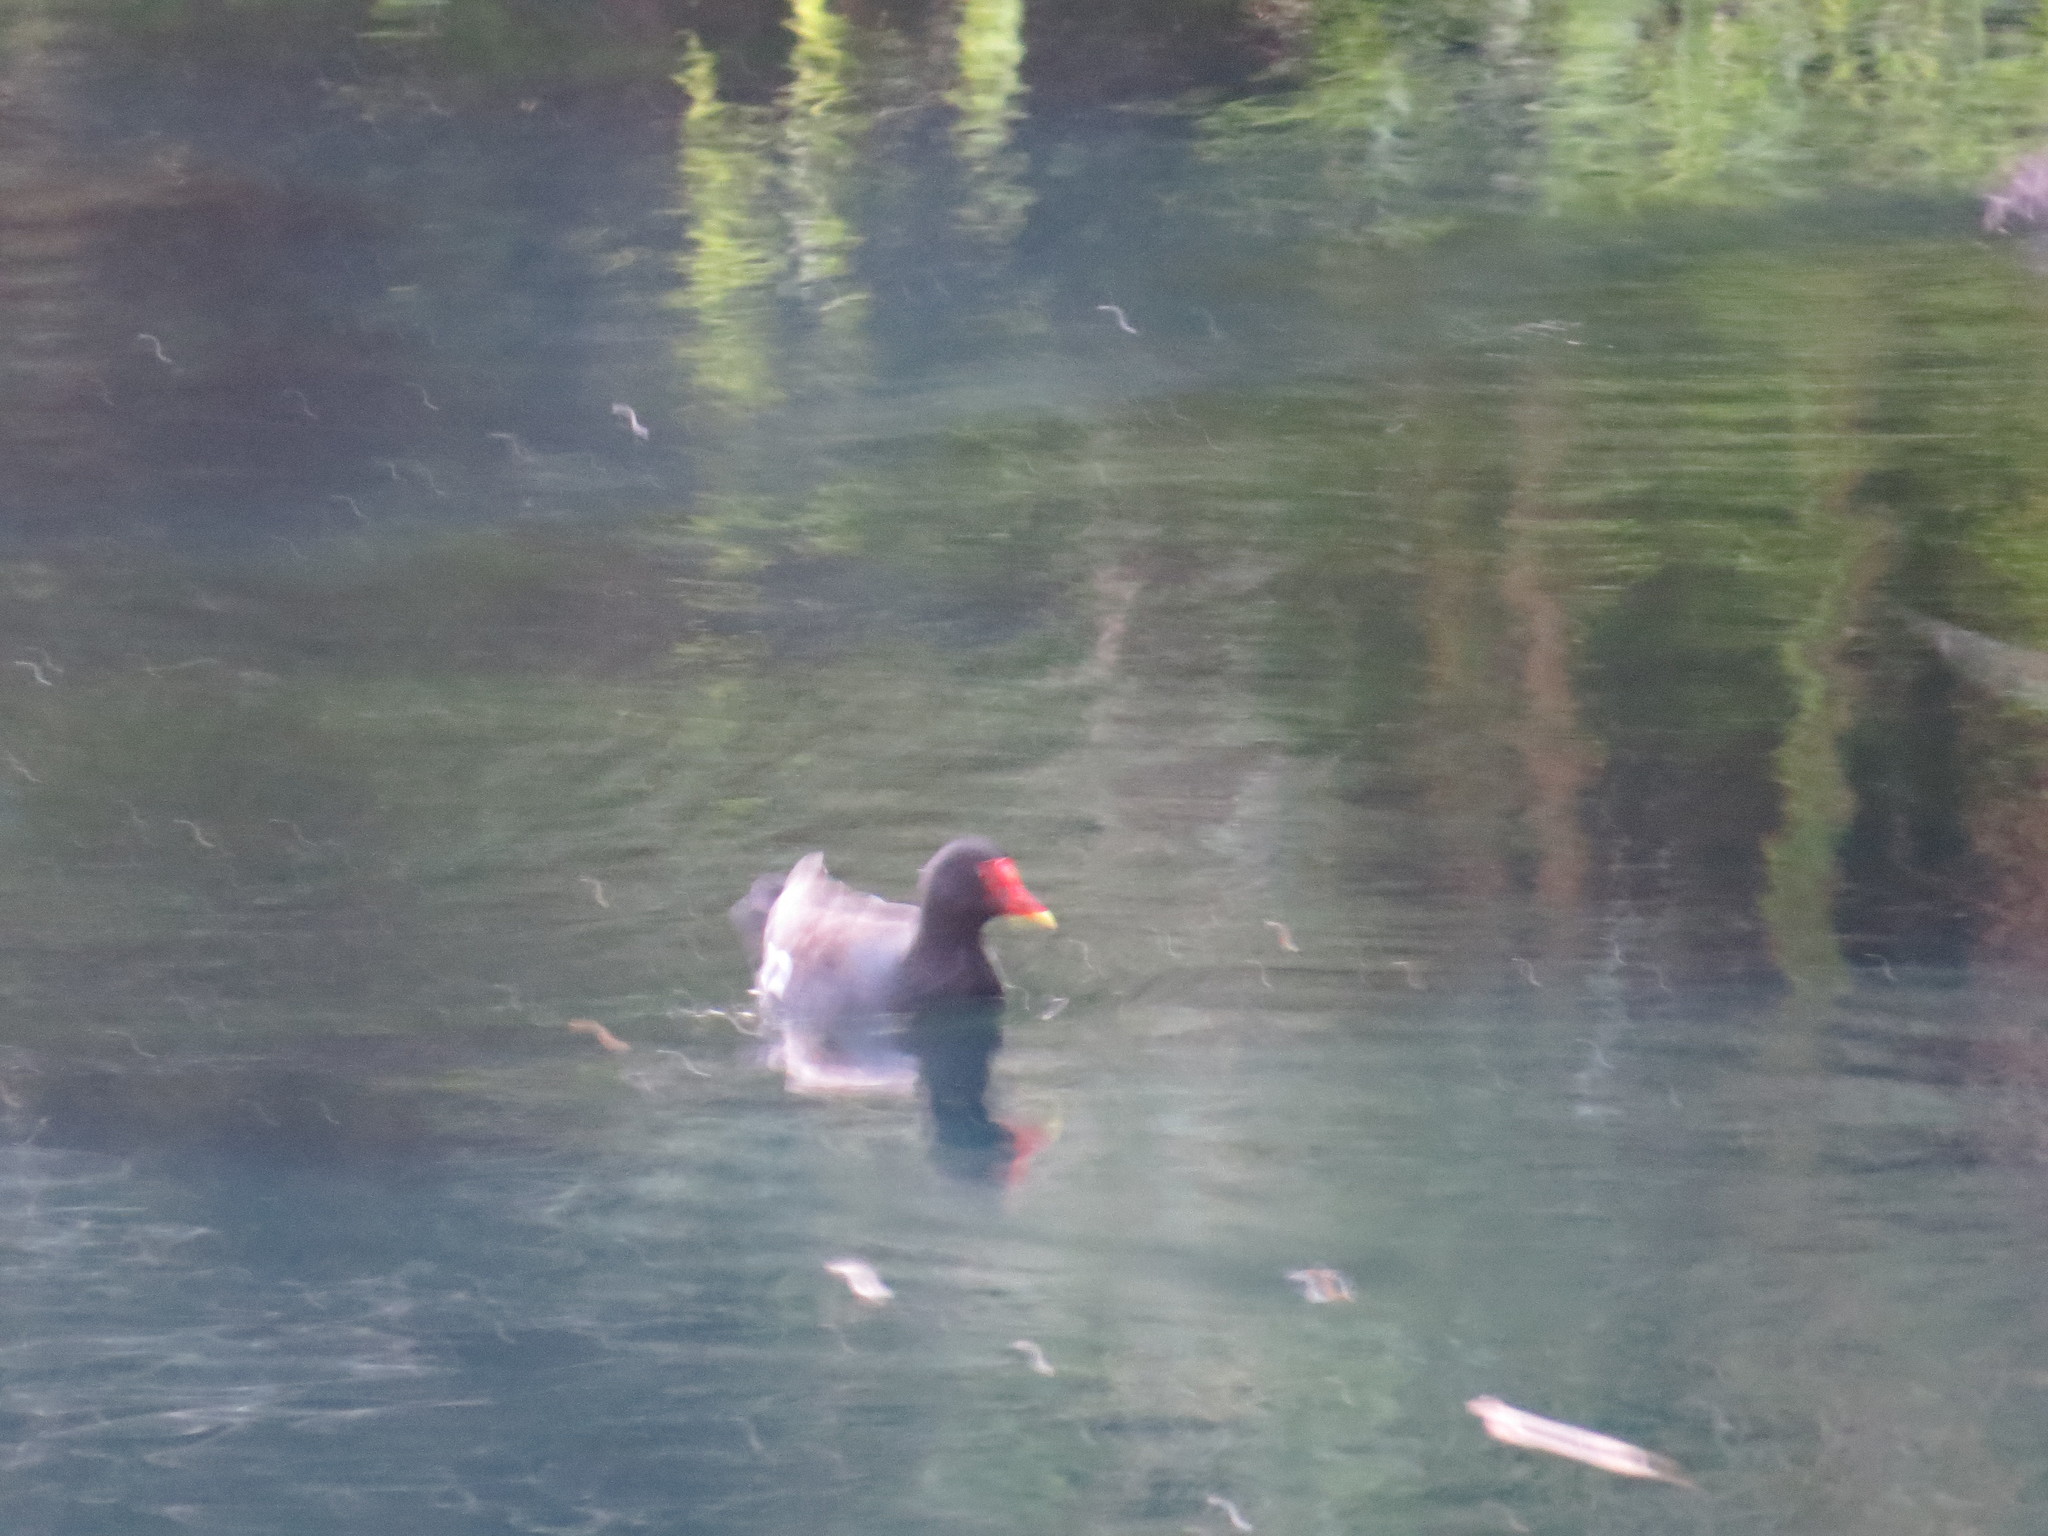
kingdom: Animalia
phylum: Chordata
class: Aves
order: Gruiformes
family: Rallidae
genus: Gallinula
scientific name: Gallinula chloropus
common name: Common moorhen
